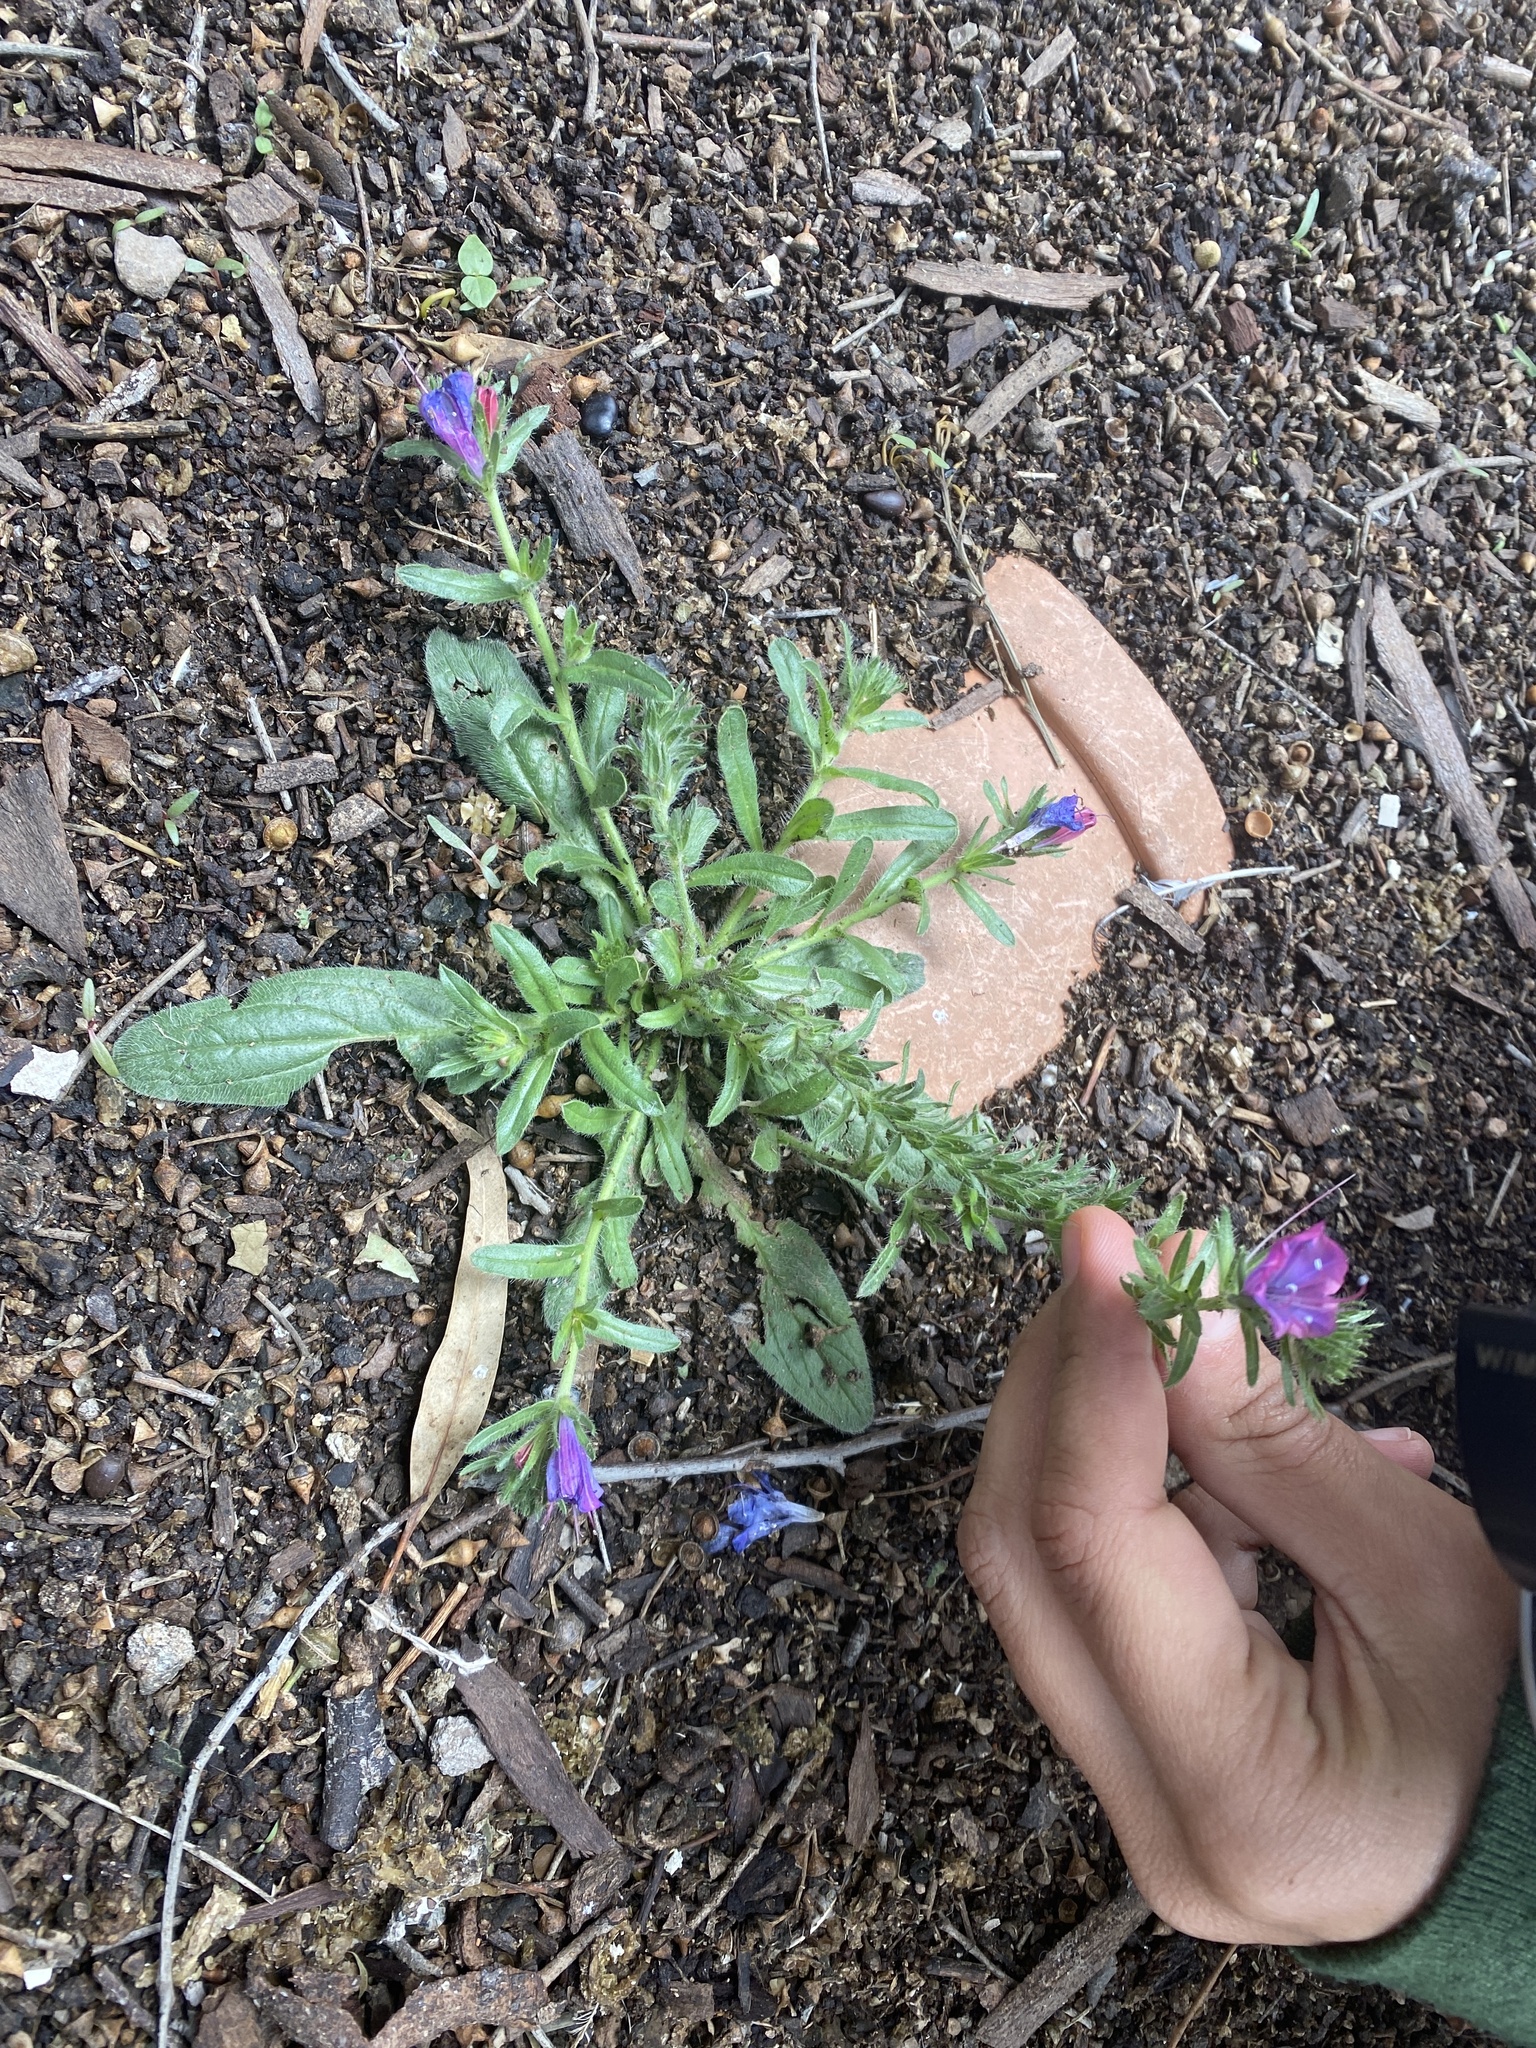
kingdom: Plantae
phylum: Tracheophyta
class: Magnoliopsida
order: Boraginales
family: Boraginaceae
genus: Echium
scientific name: Echium plantagineum
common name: Purple viper's-bugloss
